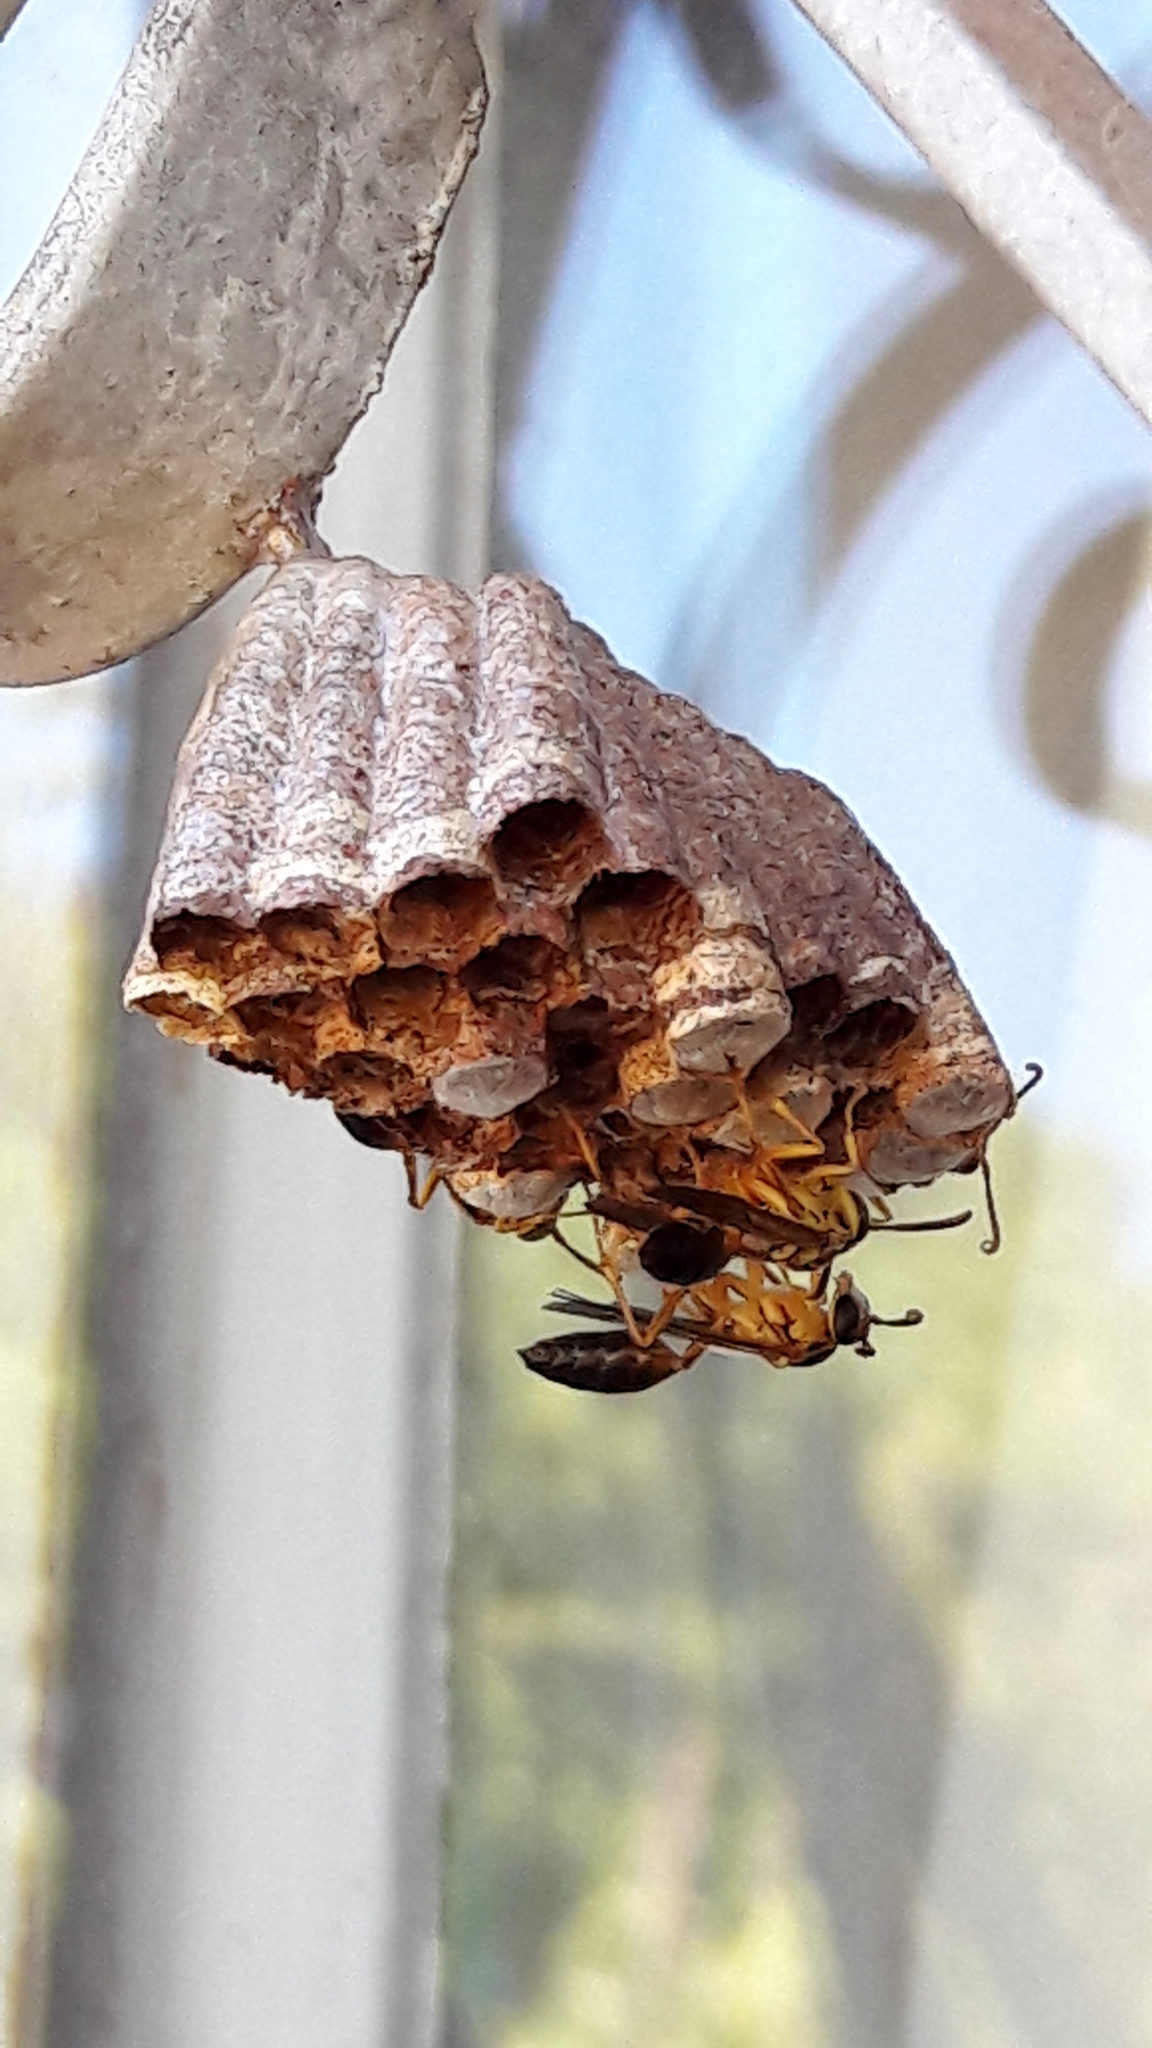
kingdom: Animalia
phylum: Arthropoda
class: Insecta
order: Hymenoptera
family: Vespidae
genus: Mischocyttarus
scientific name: Mischocyttarus cerberus
